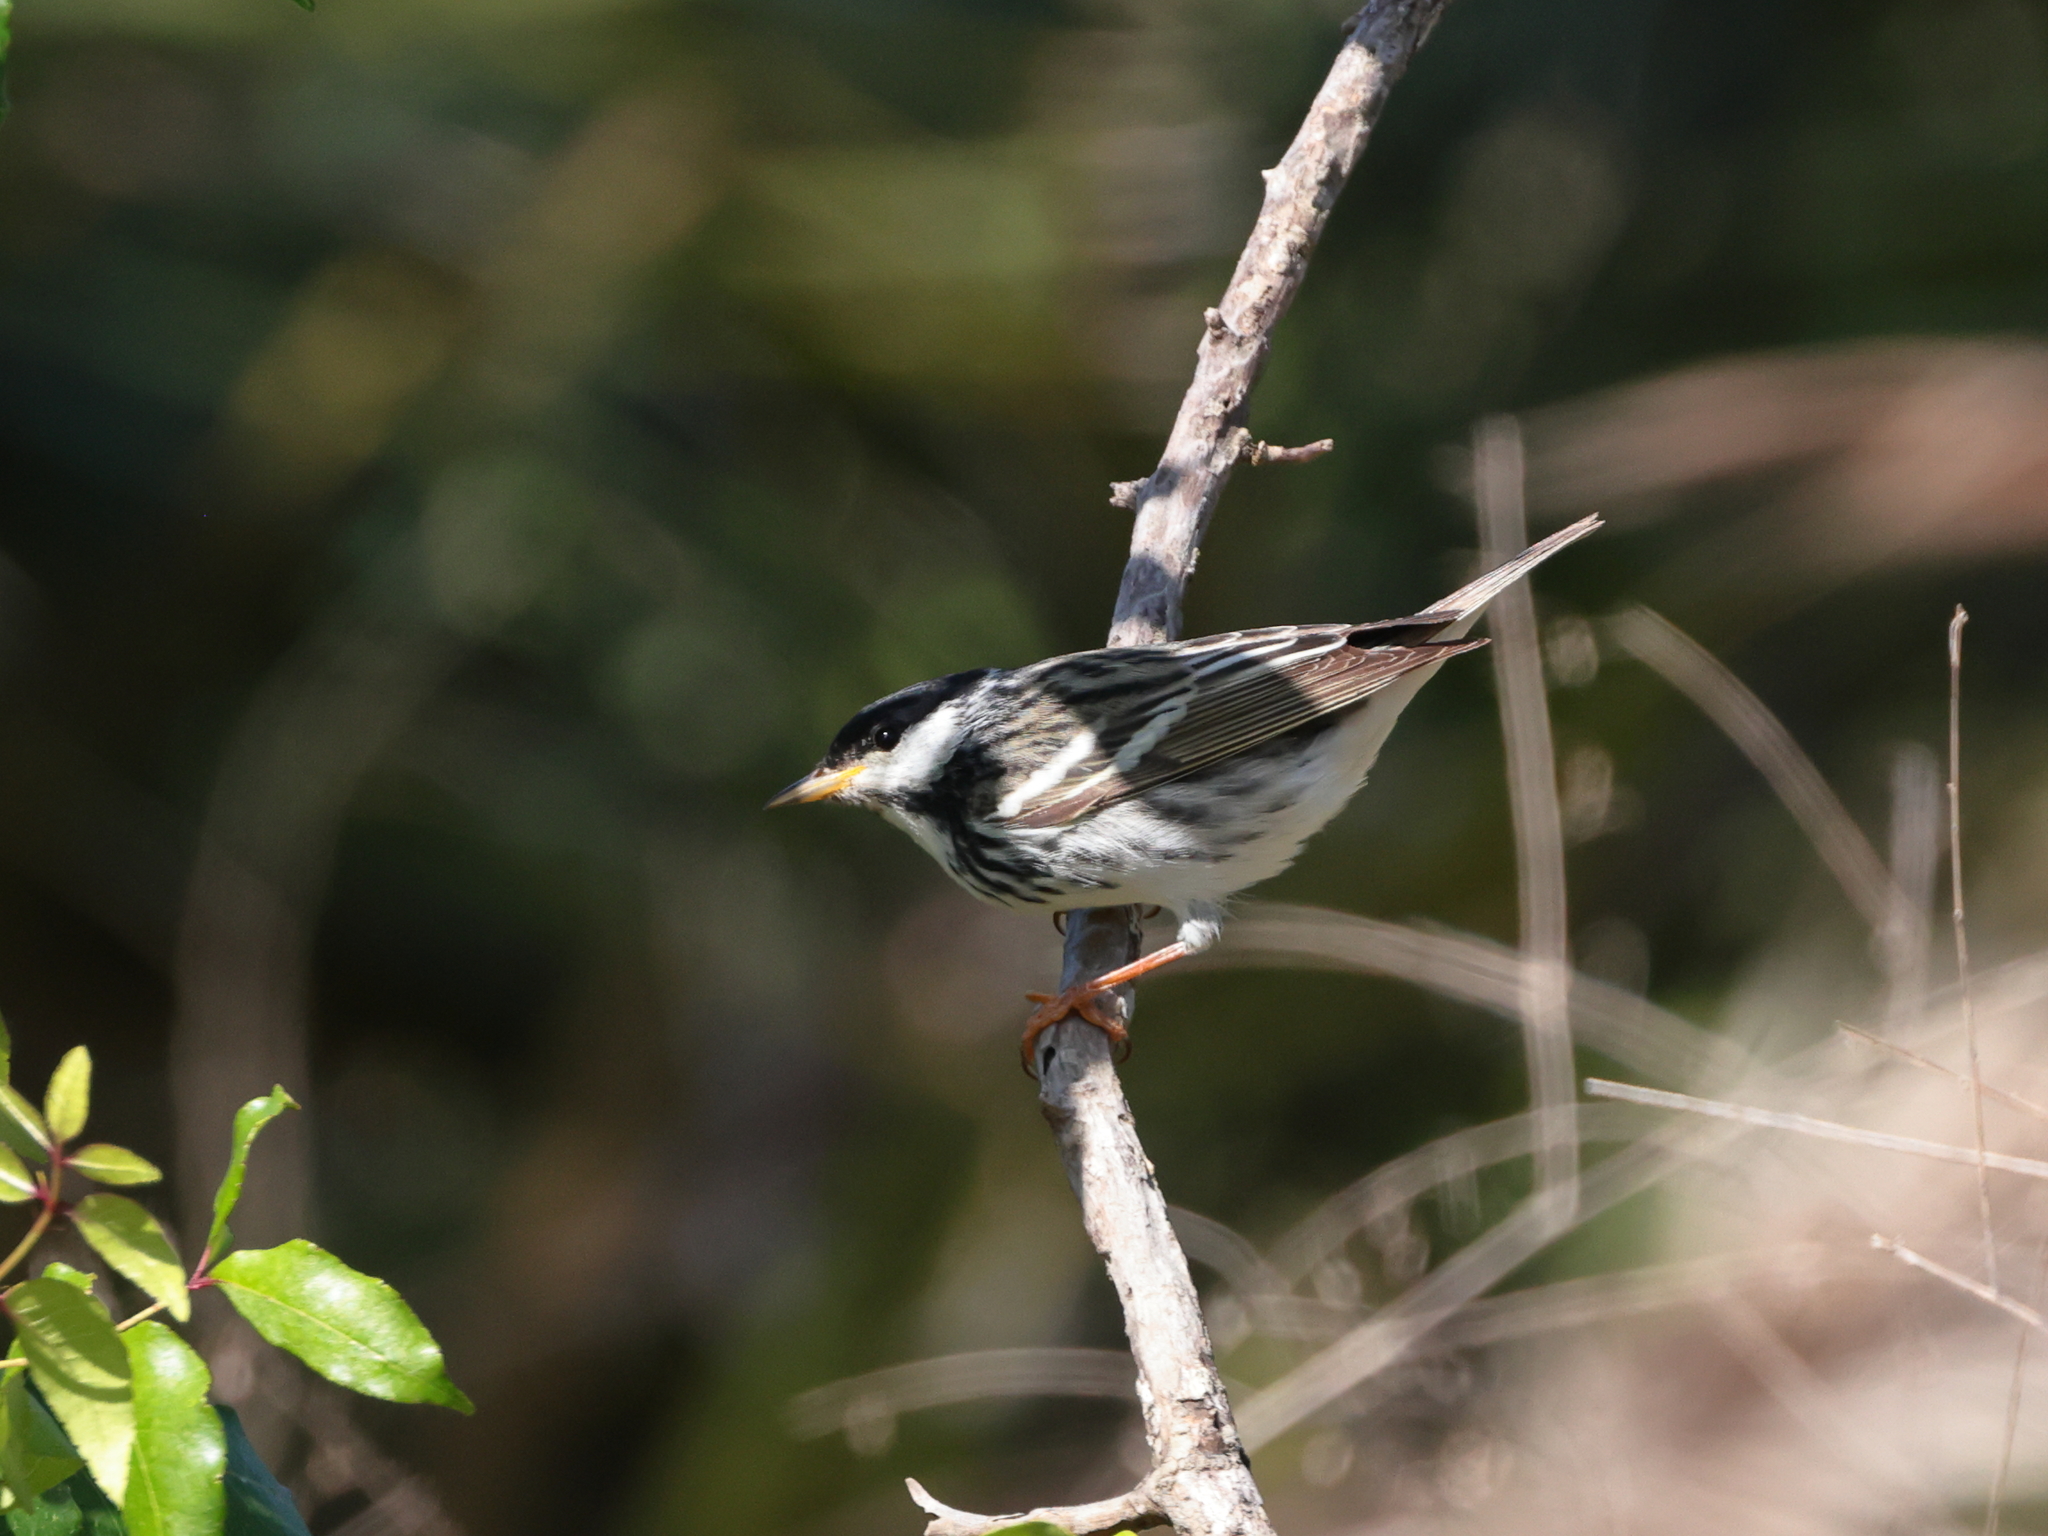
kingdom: Animalia
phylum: Chordata
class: Aves
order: Passeriformes
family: Parulidae
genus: Setophaga
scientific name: Setophaga striata
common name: Blackpoll warbler
